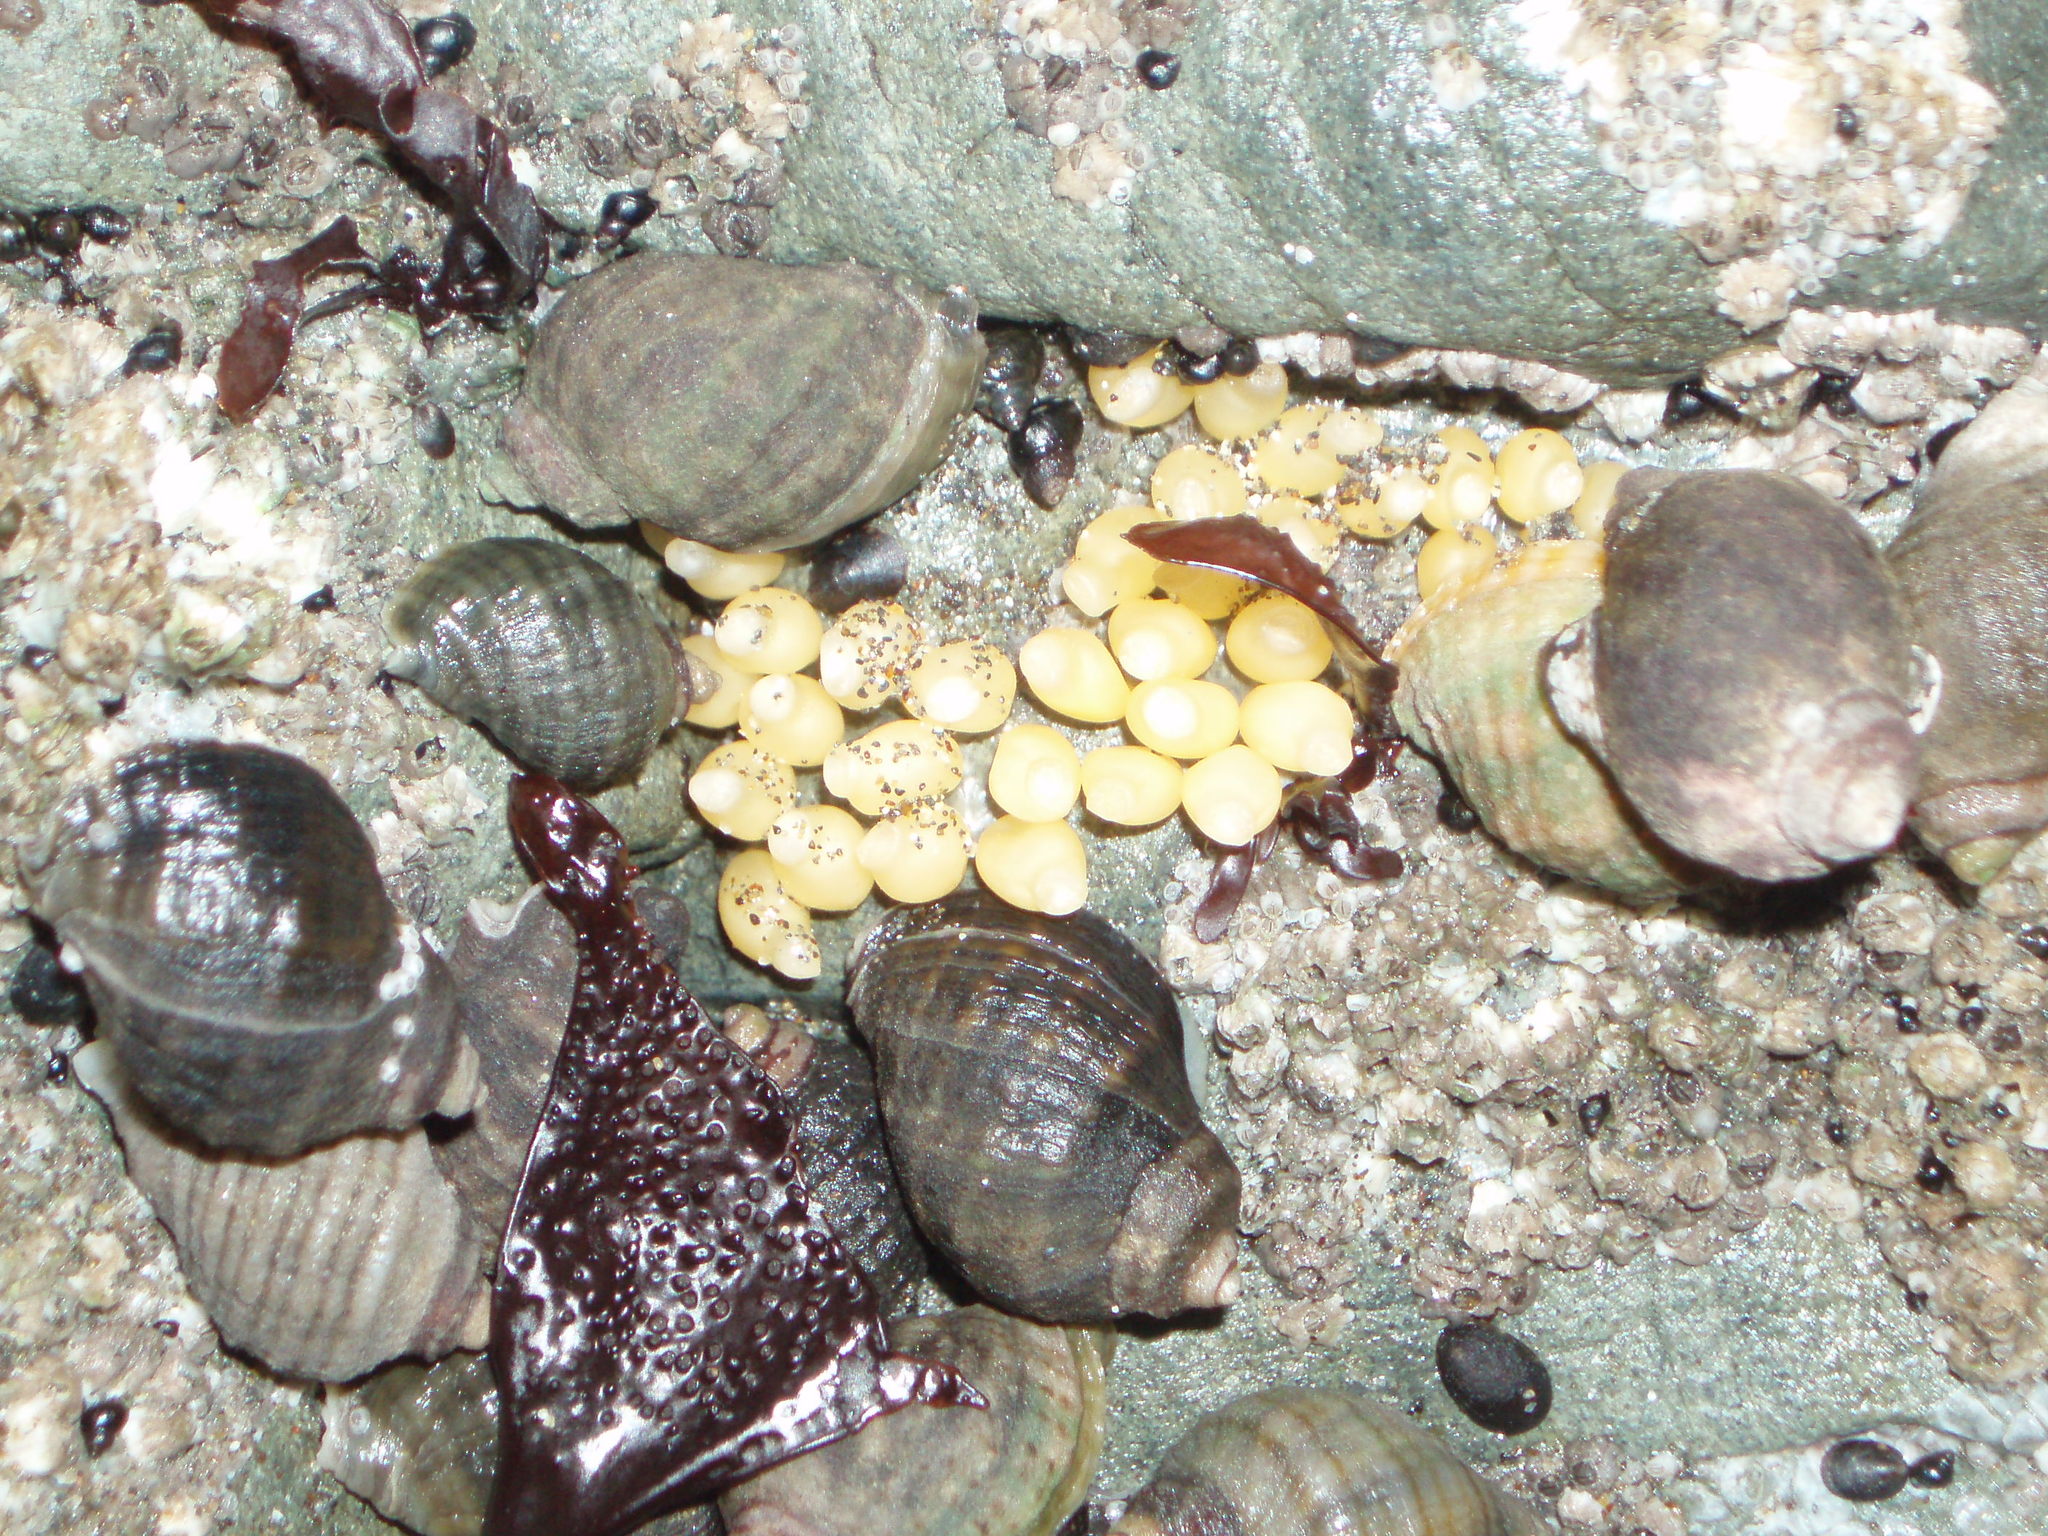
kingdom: Animalia
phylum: Mollusca
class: Gastropoda
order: Neogastropoda
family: Muricidae
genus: Nucella
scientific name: Nucella ostrina
